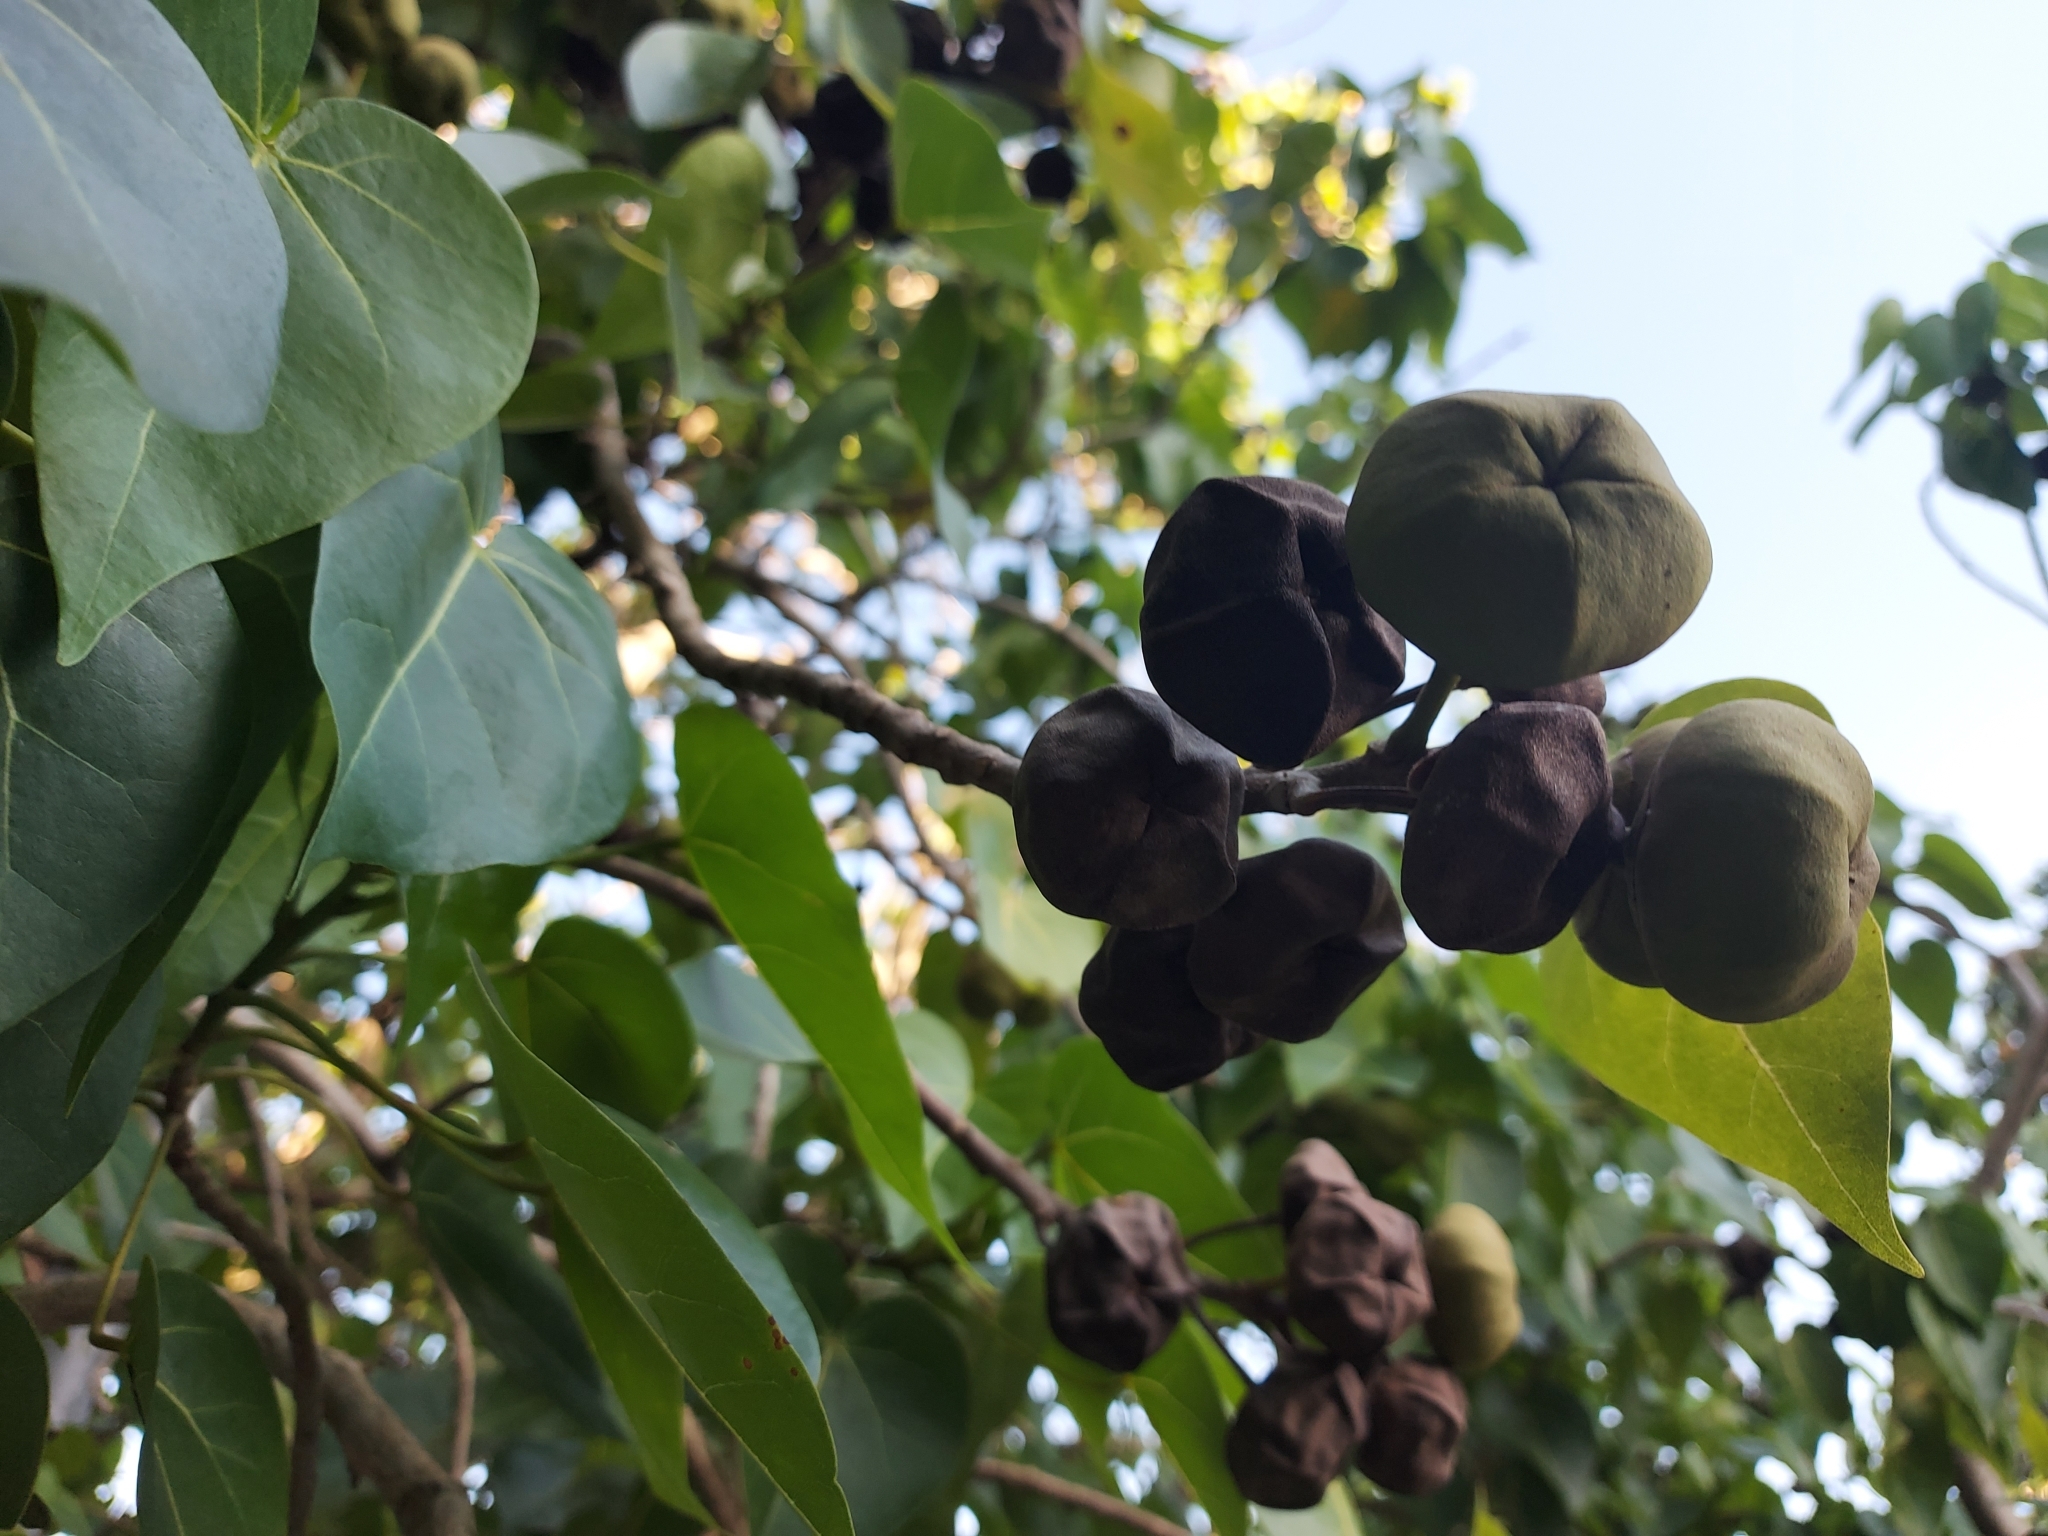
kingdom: Plantae
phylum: Tracheophyta
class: Magnoliopsida
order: Malvales
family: Malvaceae
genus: Thespesia
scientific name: Thespesia populnea
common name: Seaside mahoe
